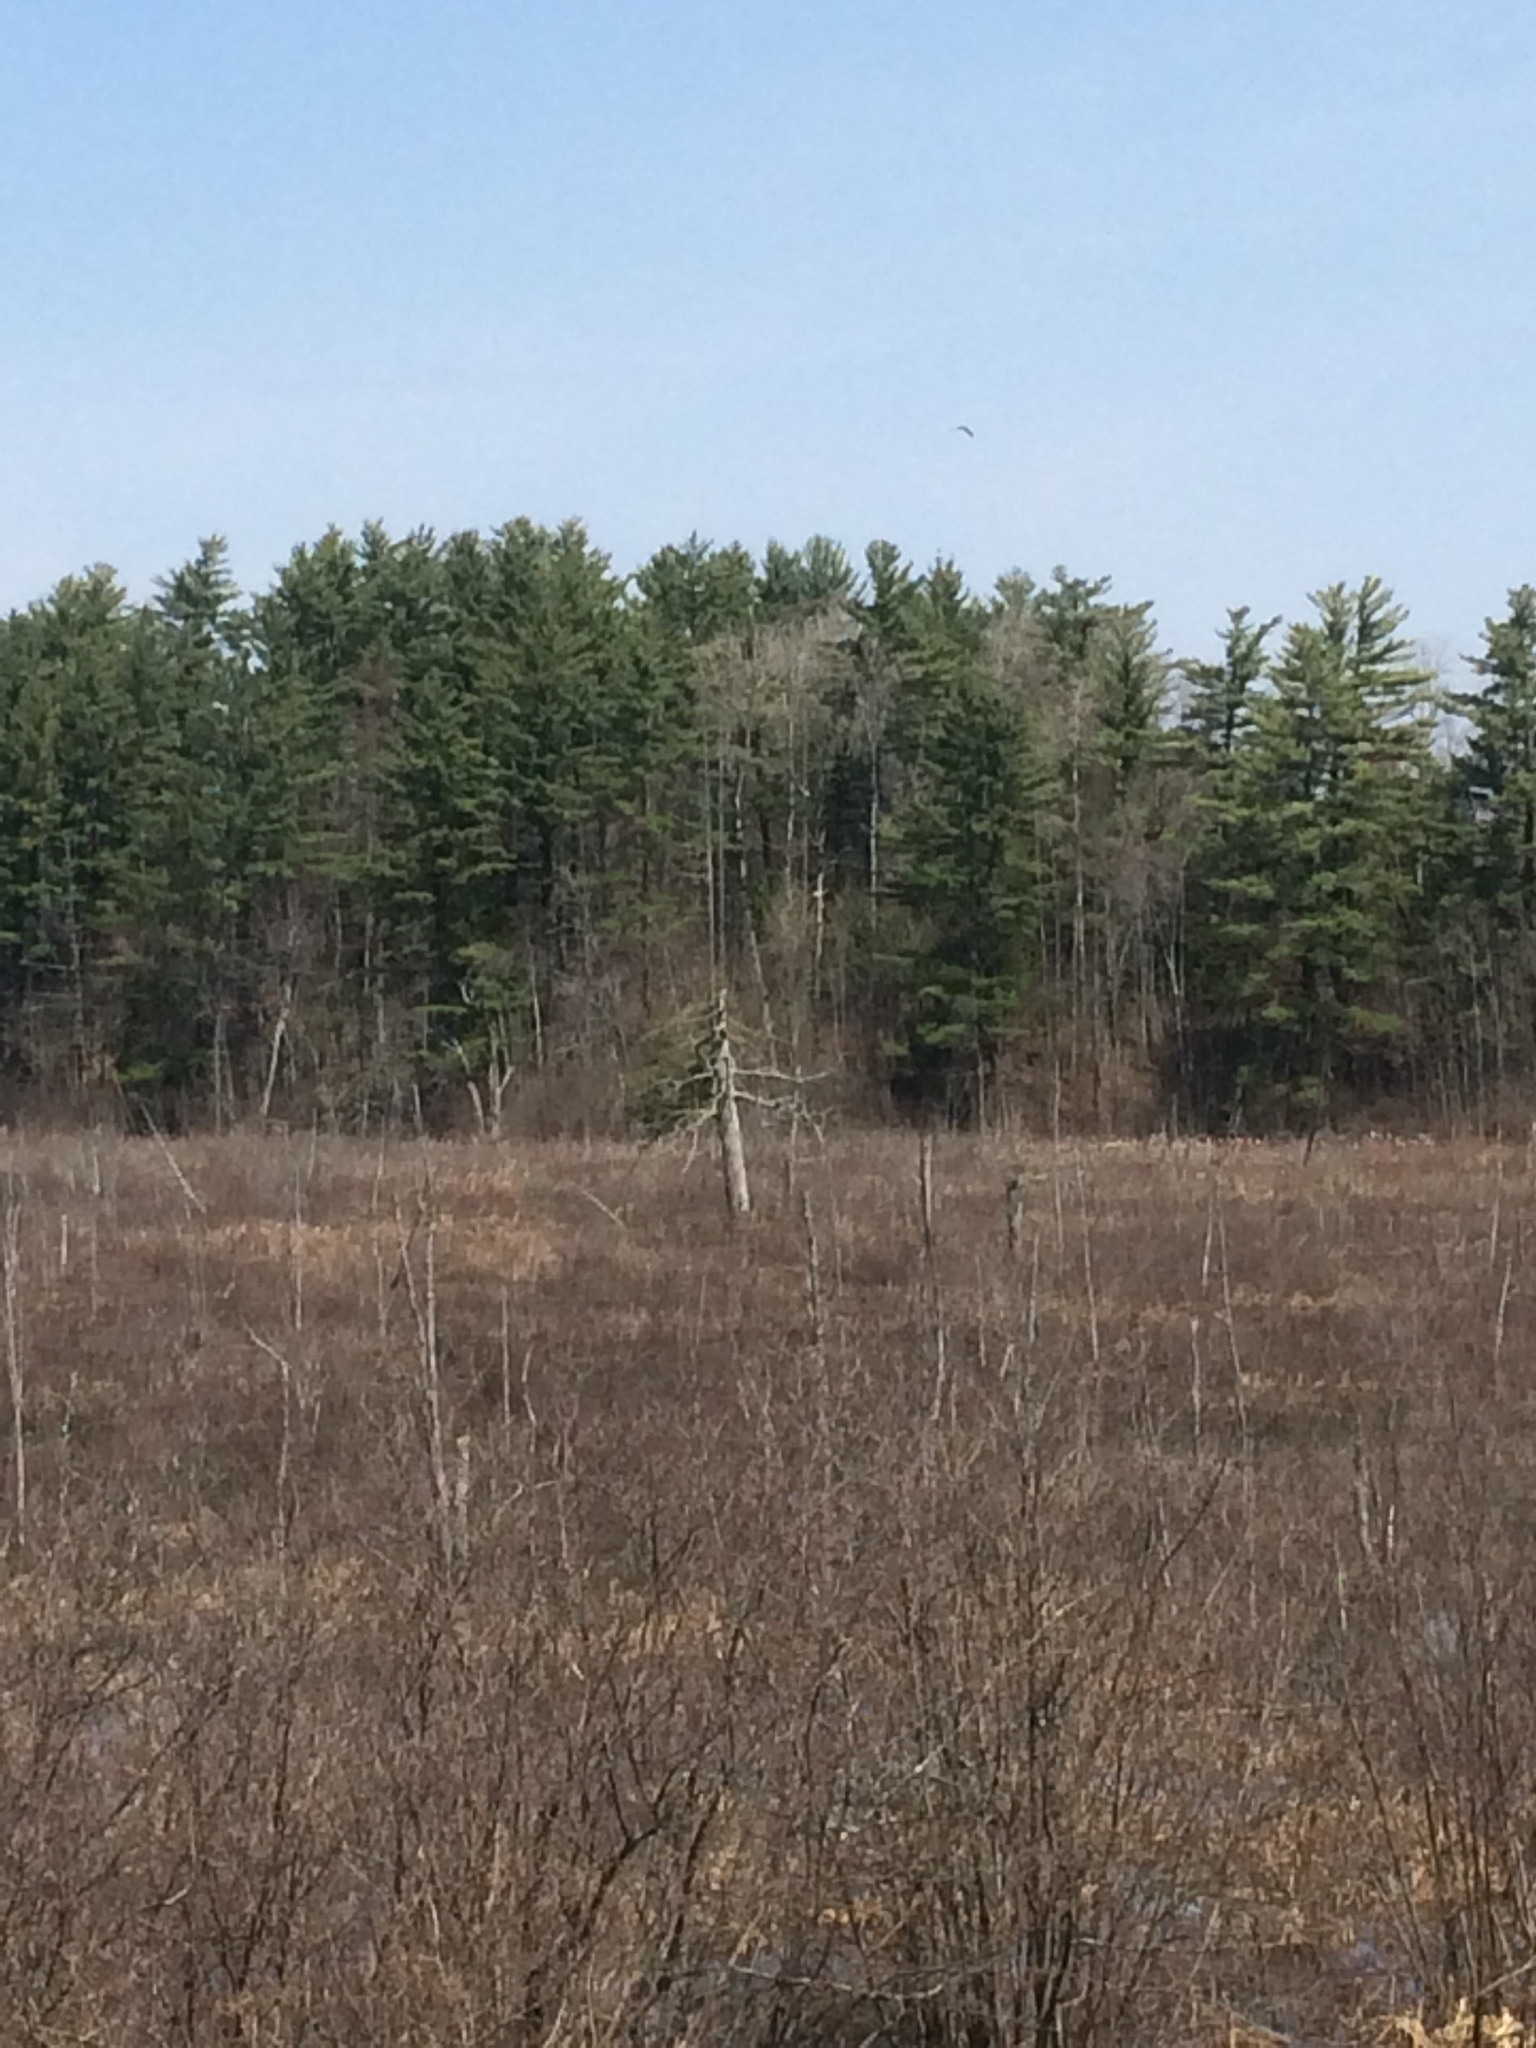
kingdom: Plantae
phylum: Tracheophyta
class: Pinopsida
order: Pinales
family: Pinaceae
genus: Pinus
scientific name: Pinus strobus
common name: Weymouth pine
